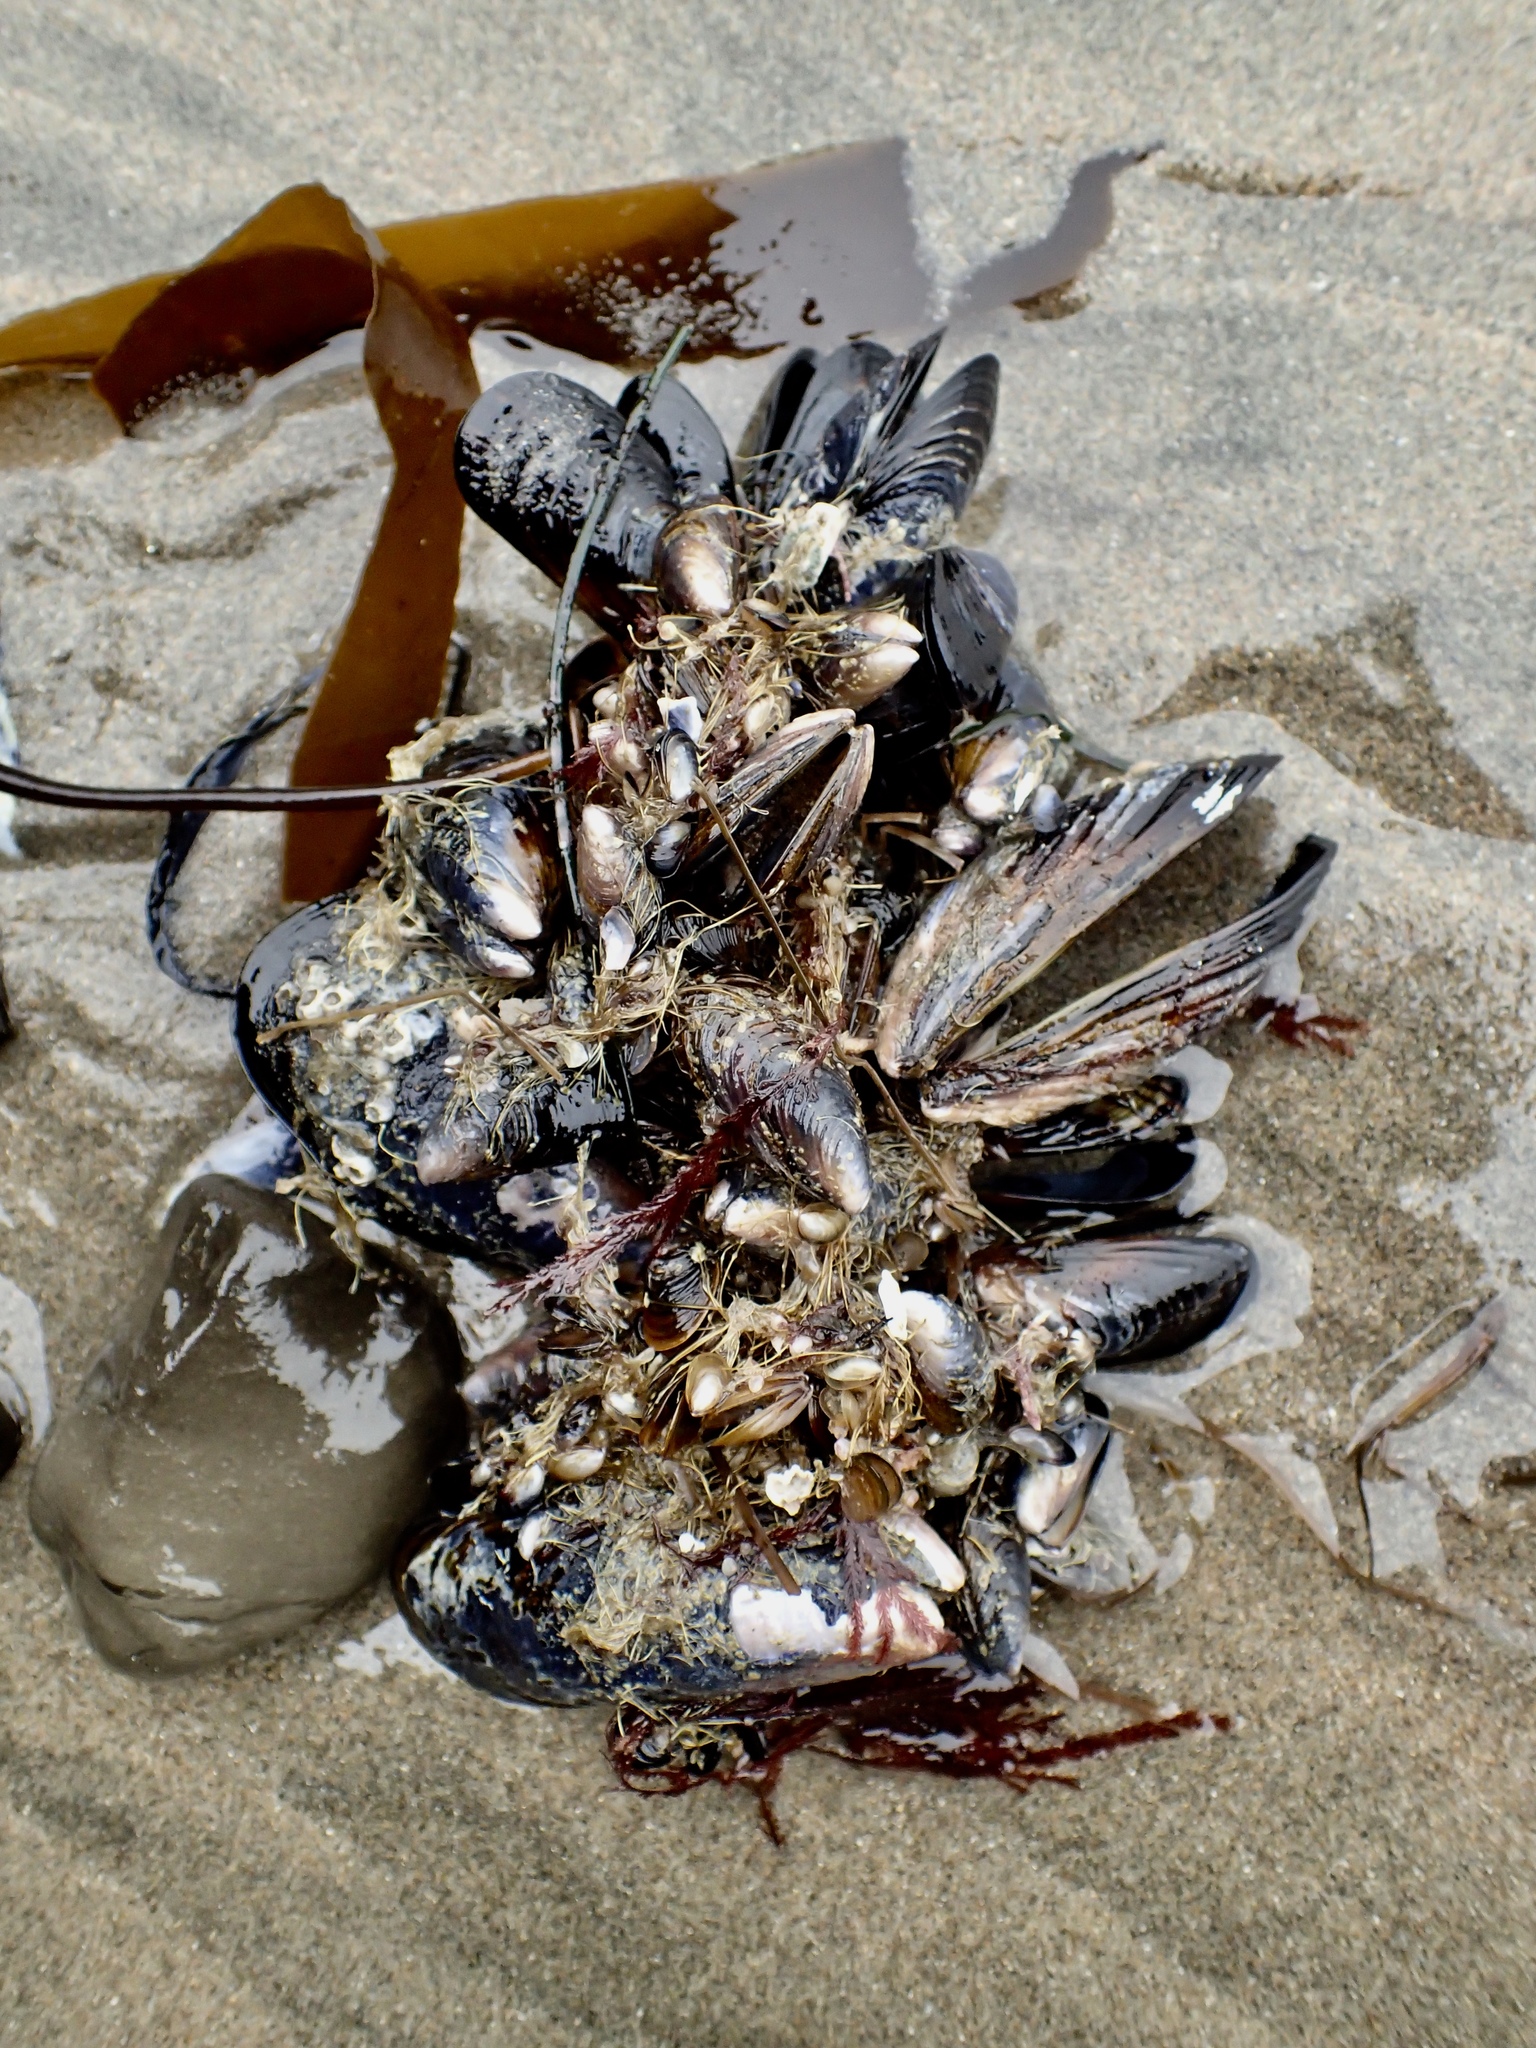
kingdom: Animalia
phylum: Mollusca
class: Bivalvia
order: Mytilida
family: Mytilidae
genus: Mytilus
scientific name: Mytilus californianus
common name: California mussel
